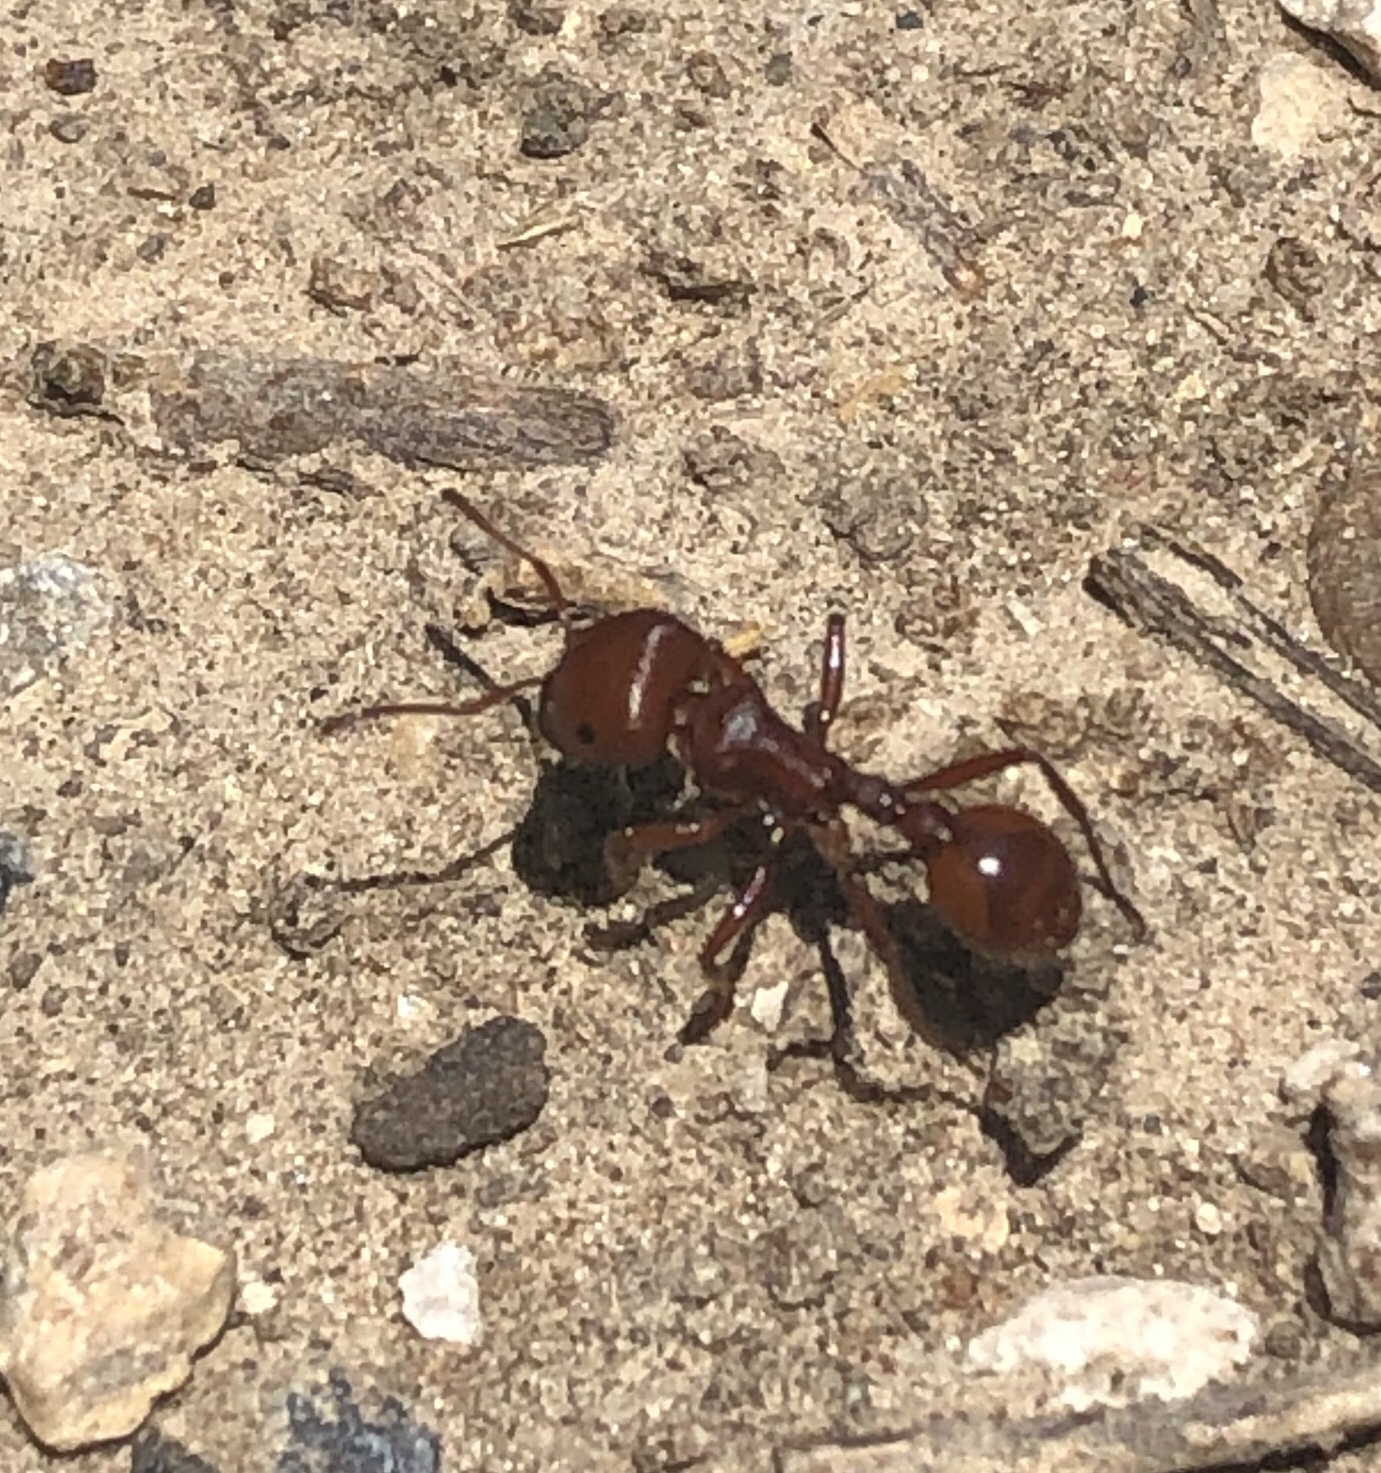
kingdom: Animalia
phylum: Arthropoda
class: Insecta
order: Hymenoptera
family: Formicidae
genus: Pogonomyrmex
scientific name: Pogonomyrmex barbatus
